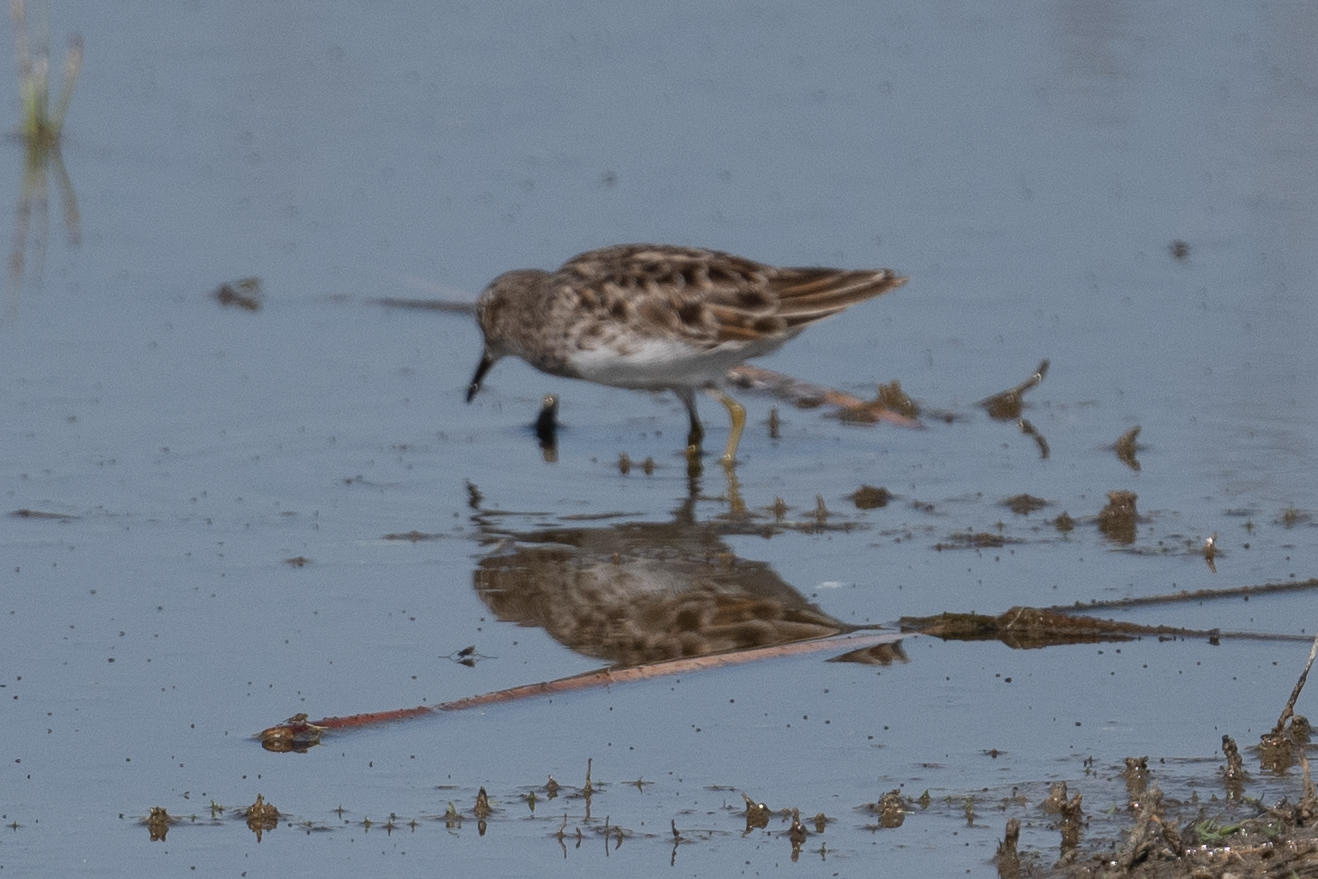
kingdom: Animalia
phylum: Chordata
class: Aves
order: Charadriiformes
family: Scolopacidae
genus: Calidris
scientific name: Calidris minutilla
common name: Least sandpiper
